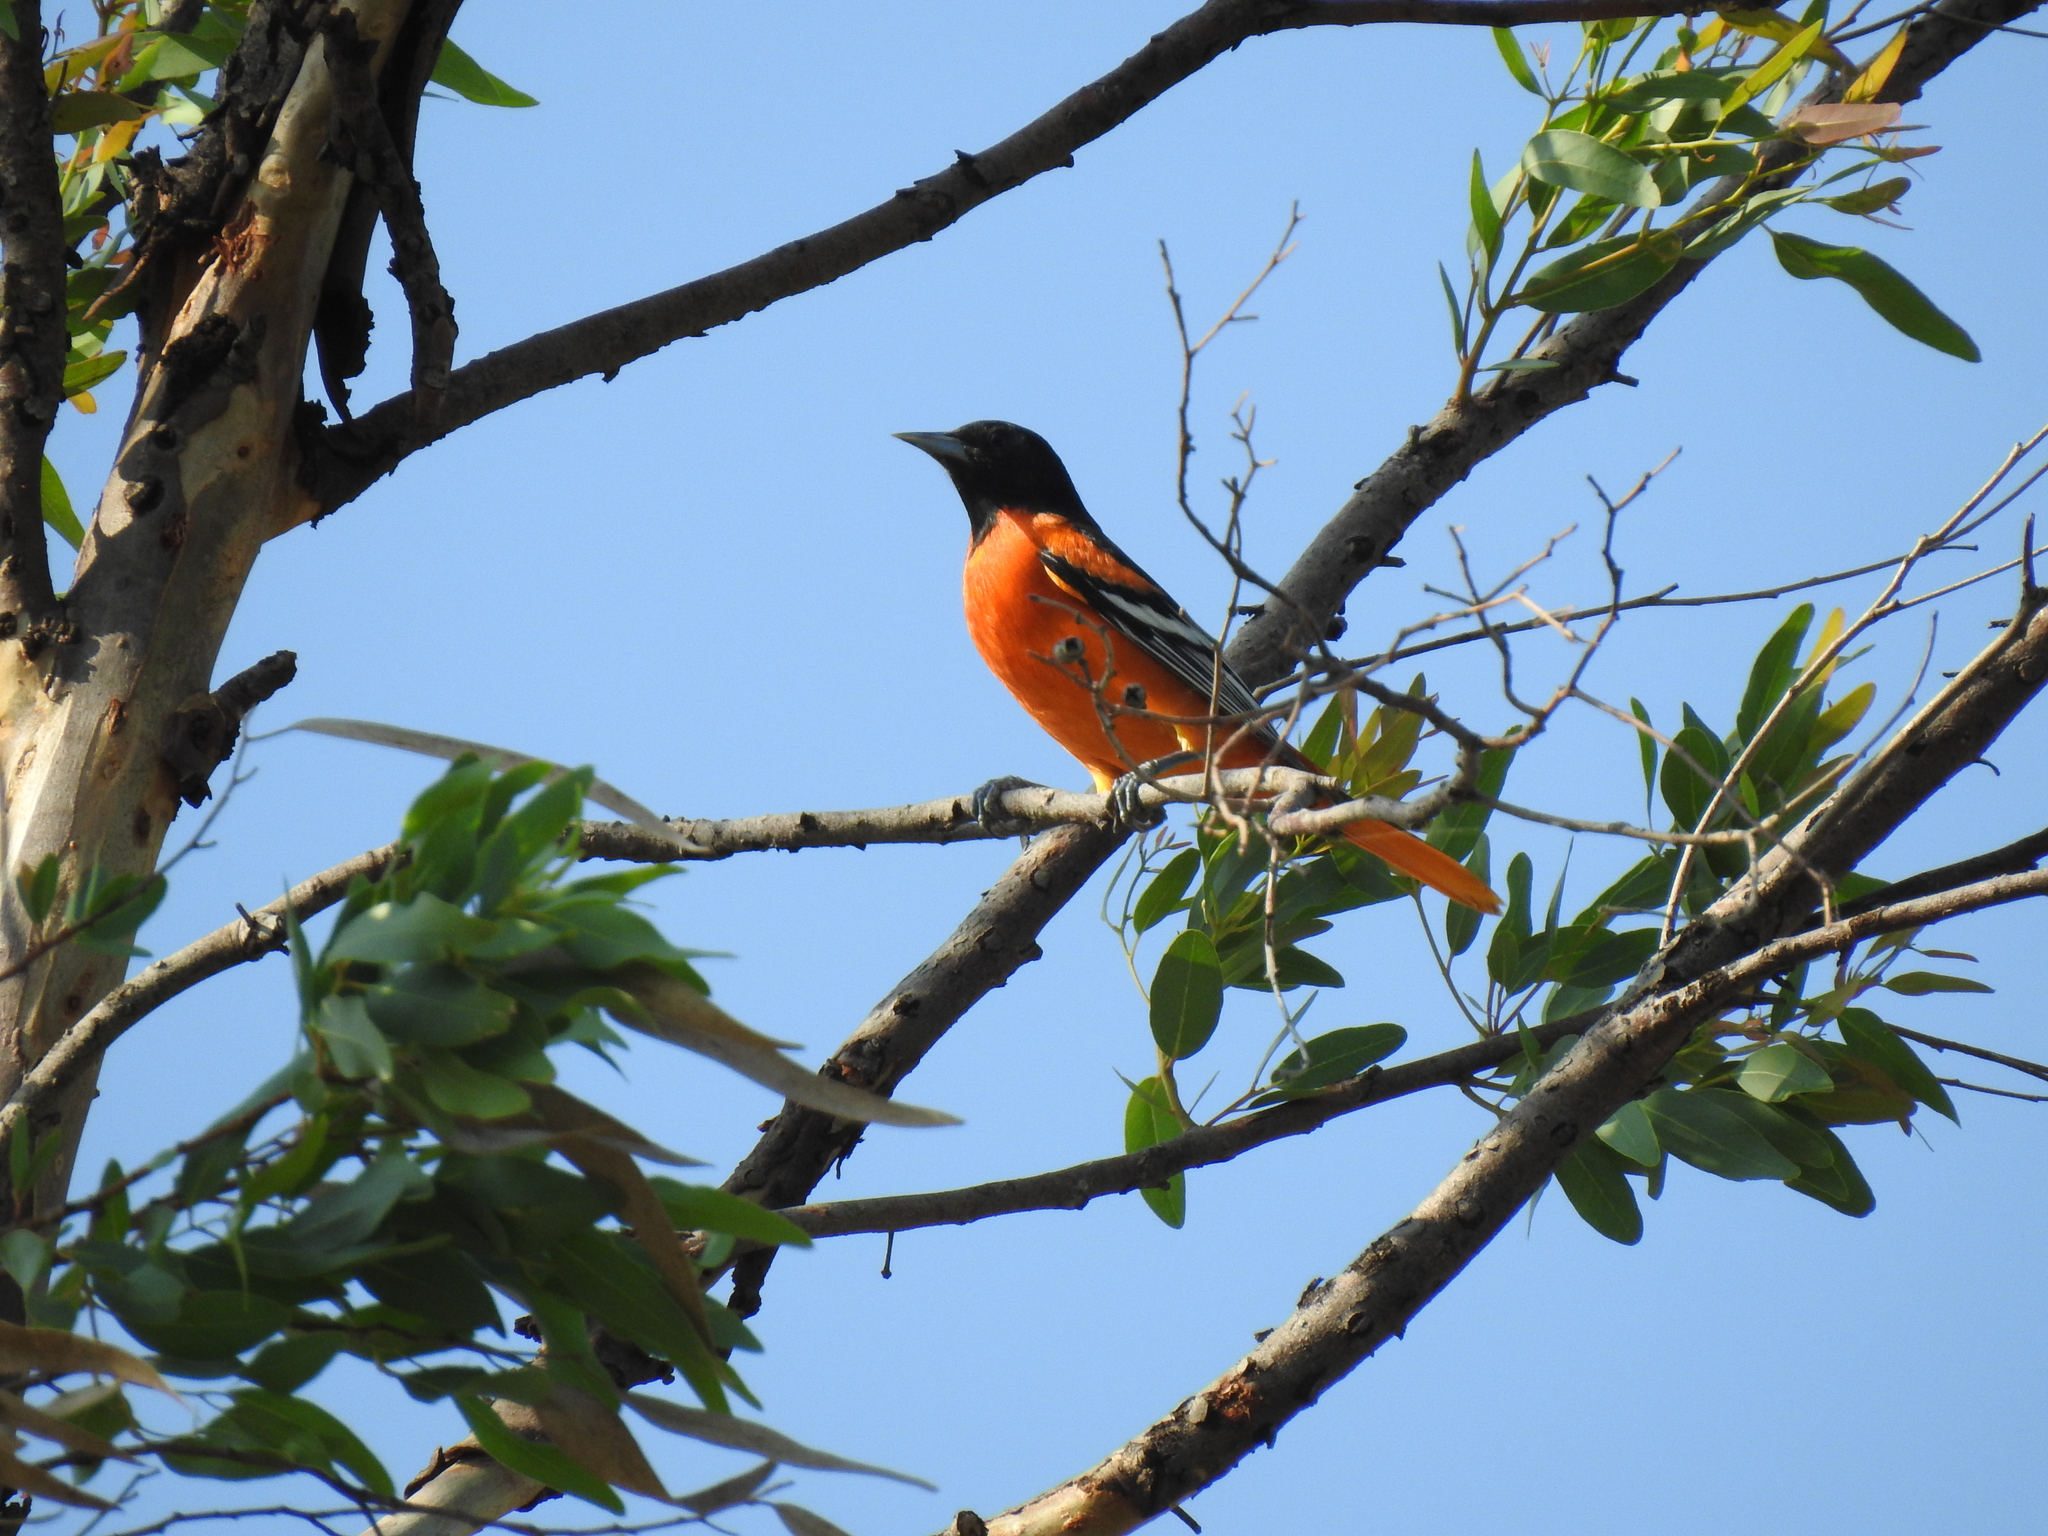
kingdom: Animalia
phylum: Chordata
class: Aves
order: Passeriformes
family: Icteridae
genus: Icterus
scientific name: Icterus galbula
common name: Baltimore oriole
